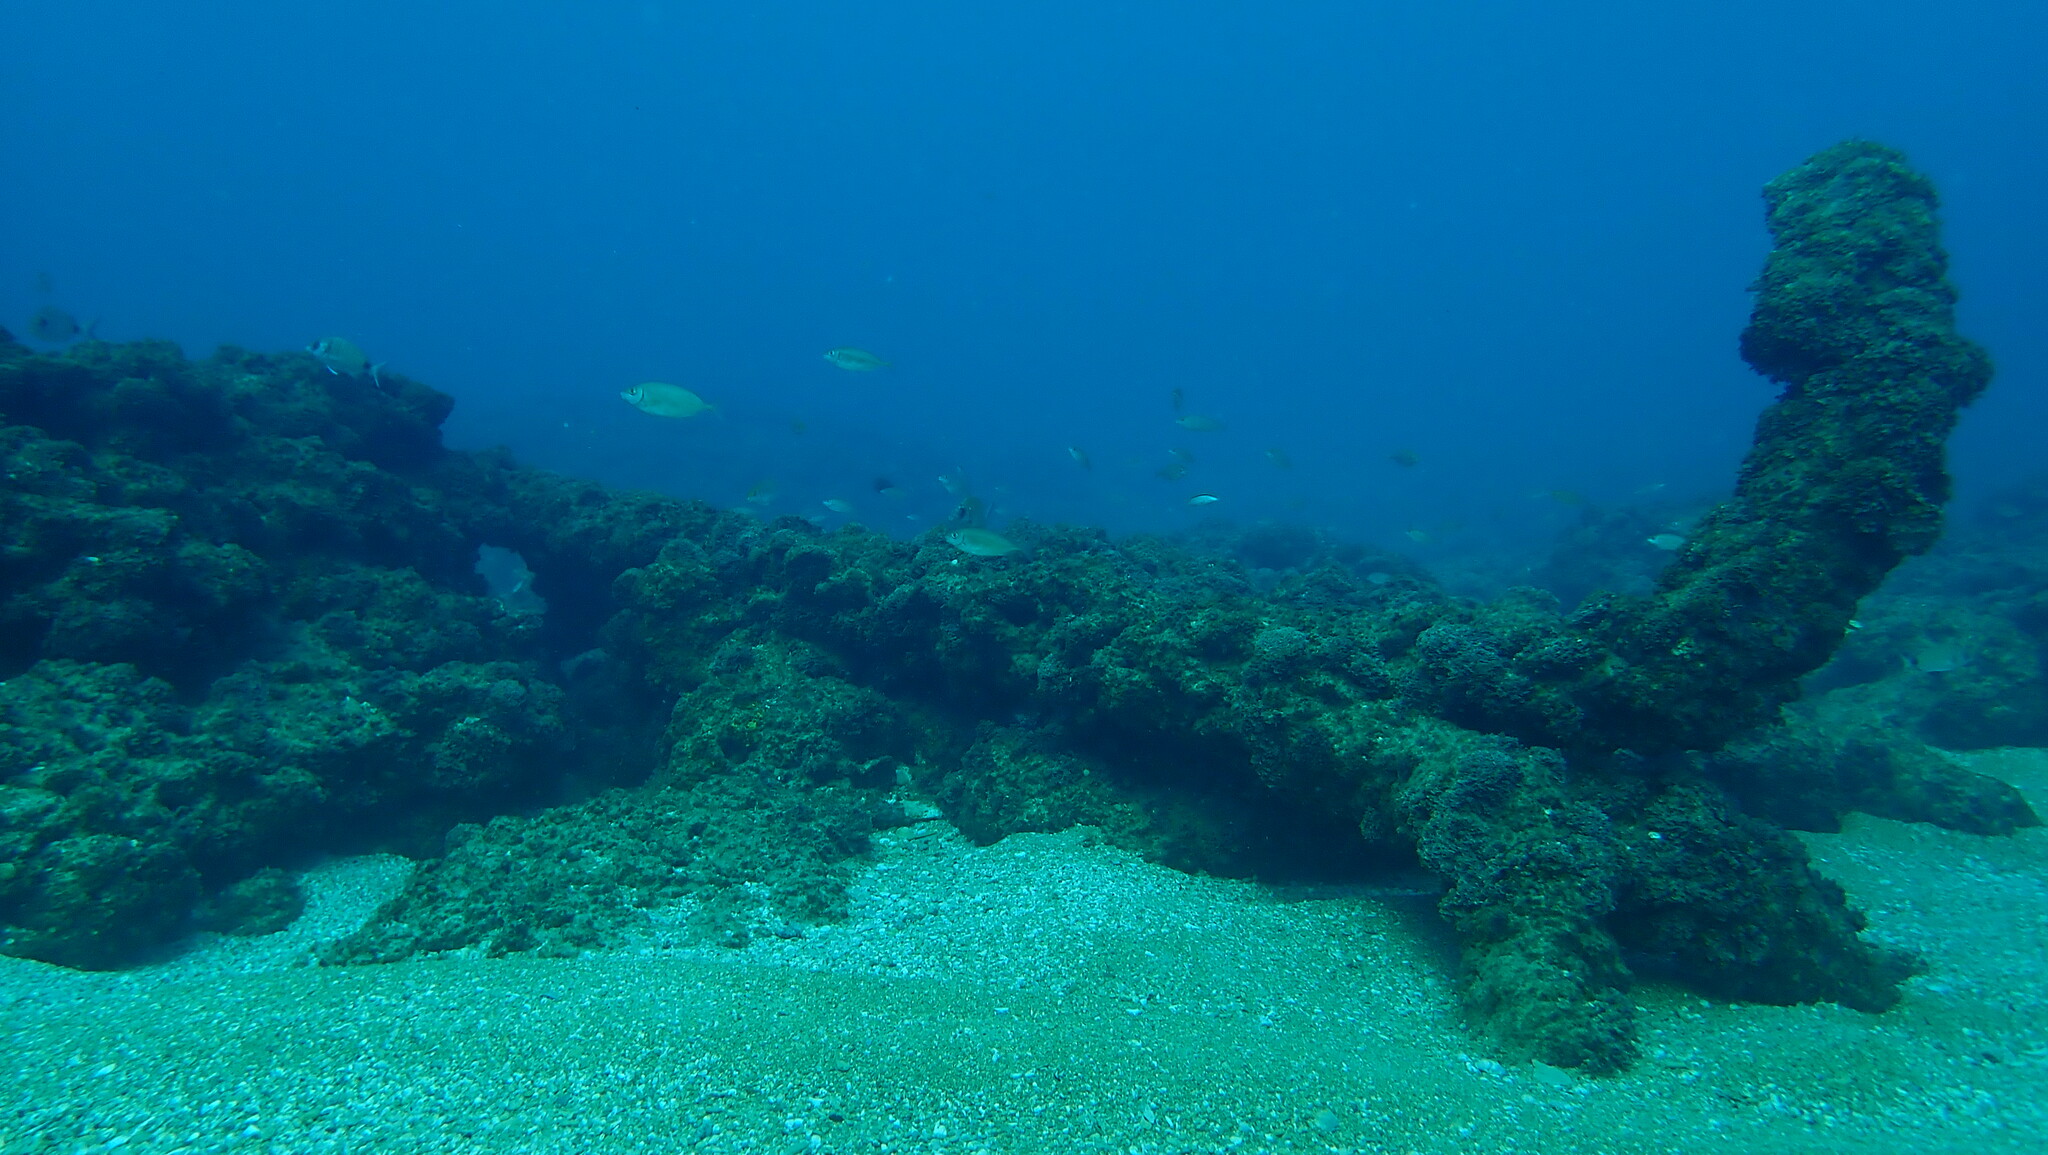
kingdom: Animalia
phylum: Chordata
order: Perciformes
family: Siganidae
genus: Siganus
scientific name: Siganus rivulatus
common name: Marbled spinefoot
